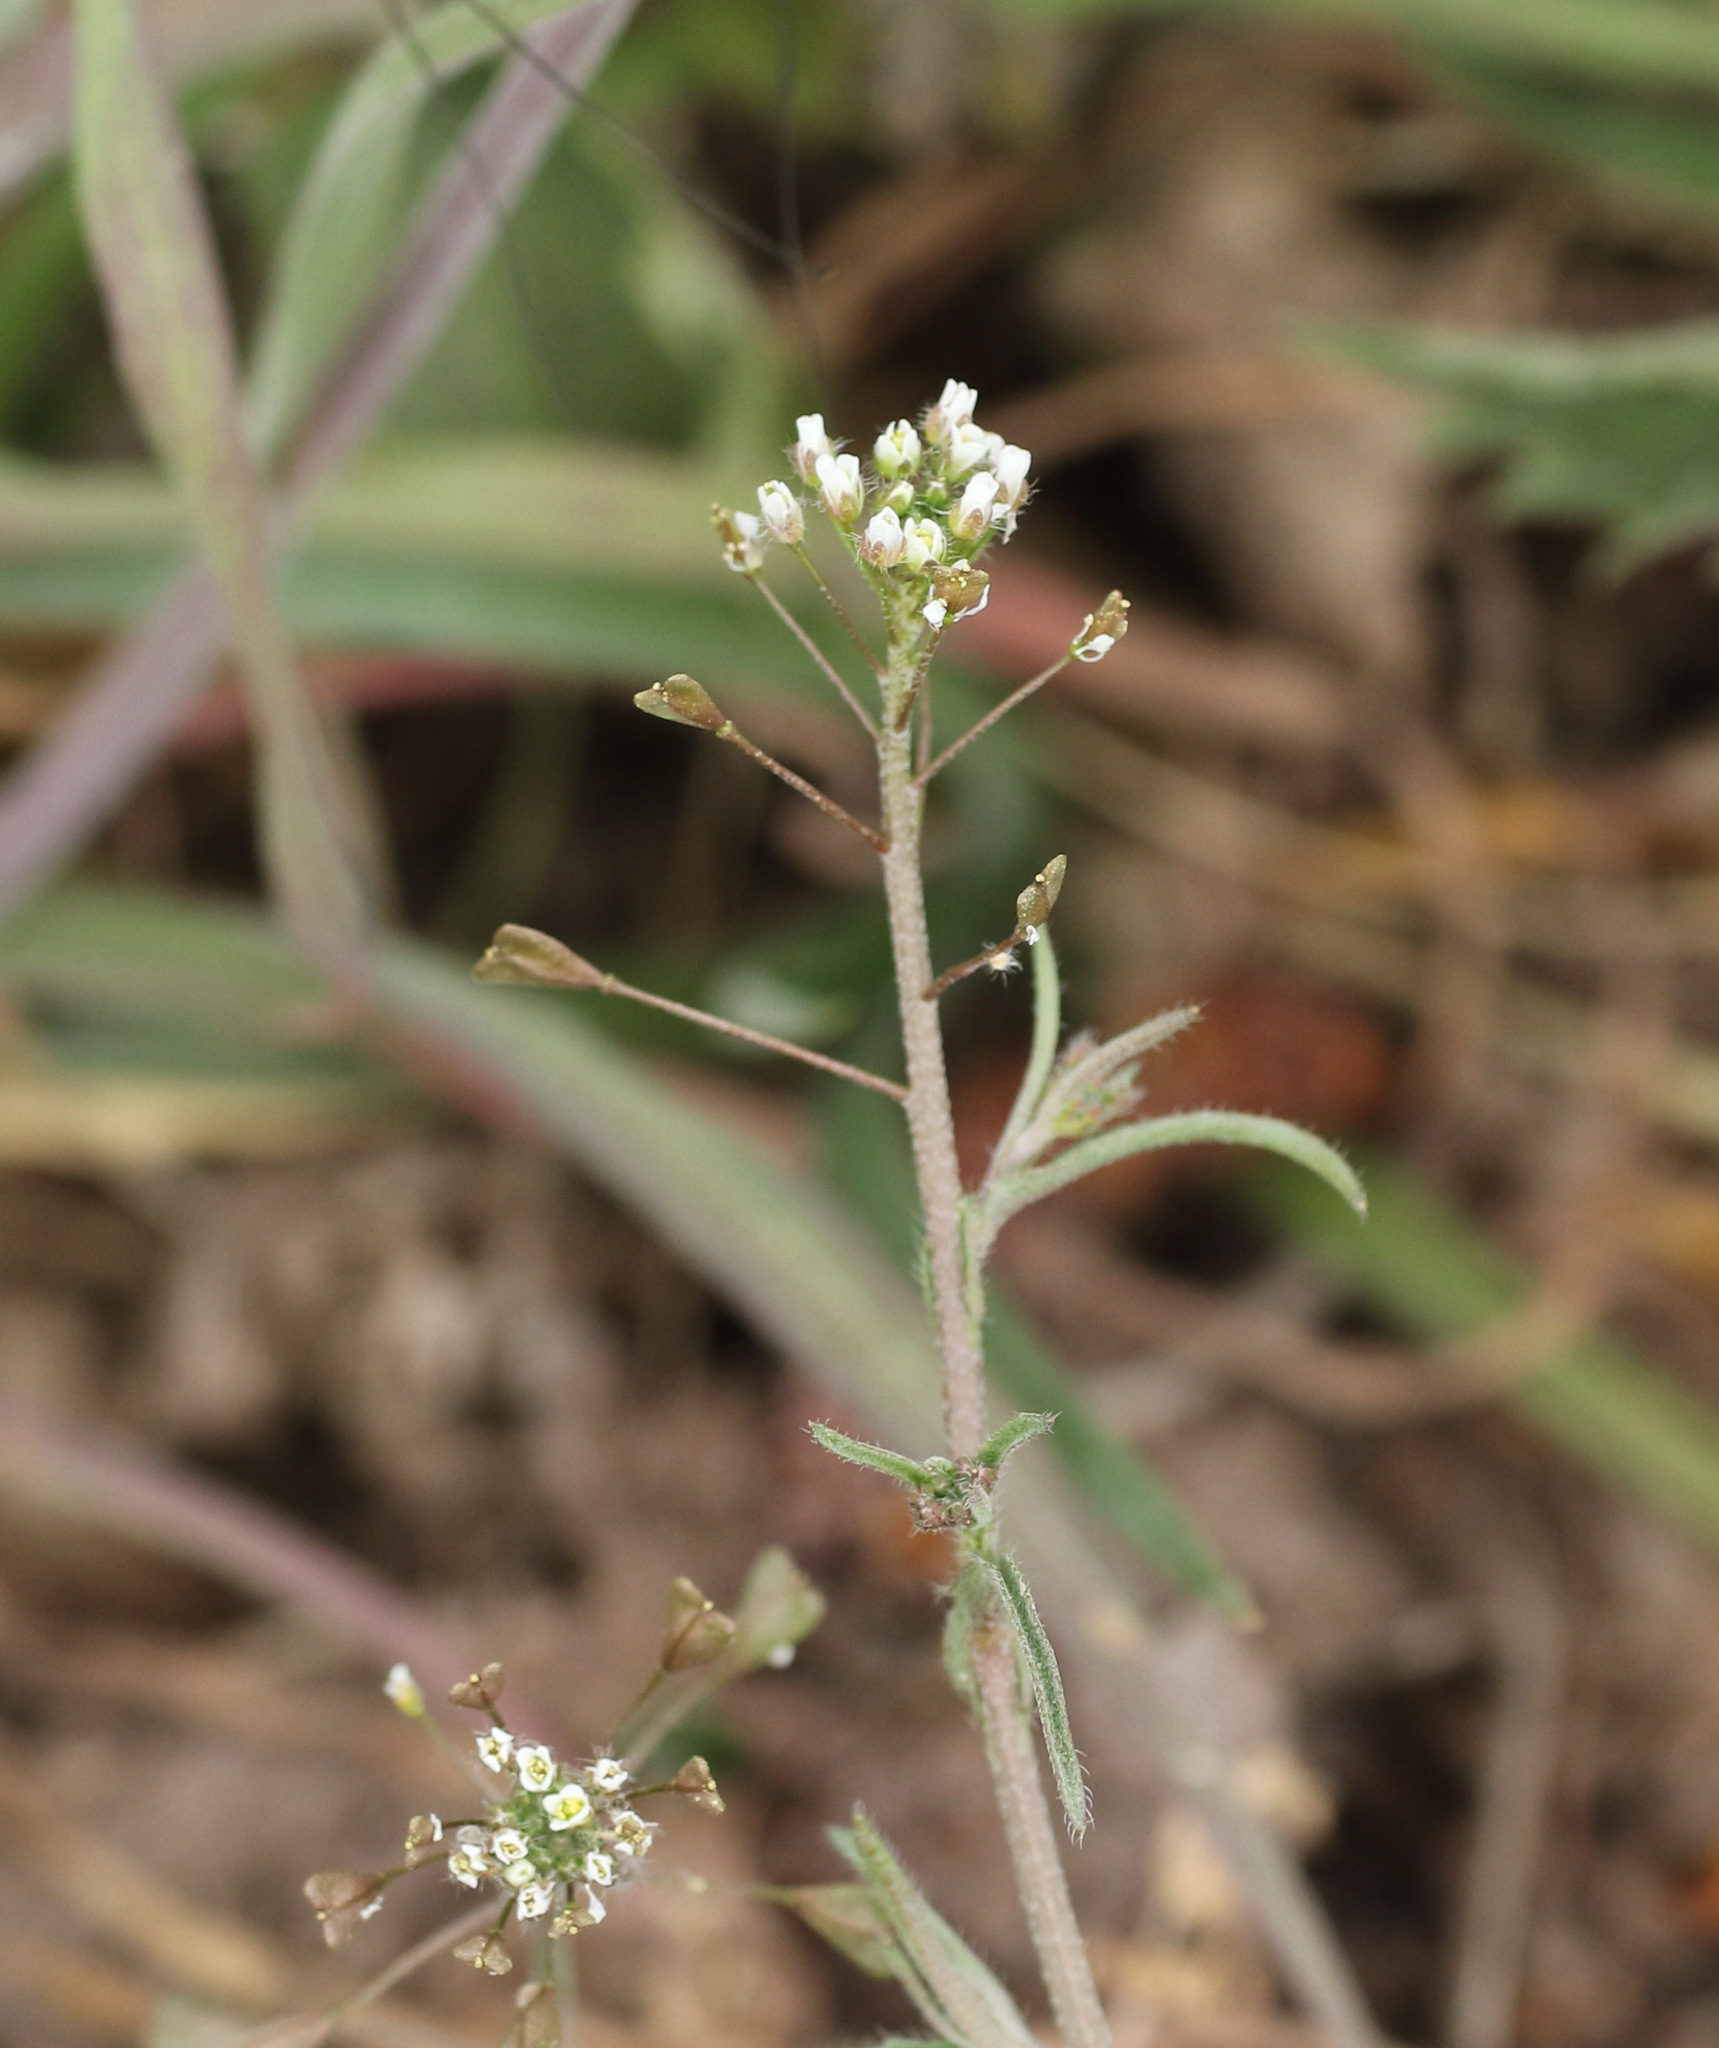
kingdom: Plantae
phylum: Tracheophyta
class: Magnoliopsida
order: Brassicales
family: Brassicaceae
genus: Capsella
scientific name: Capsella bursa-pastoris
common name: Shepherd's purse
